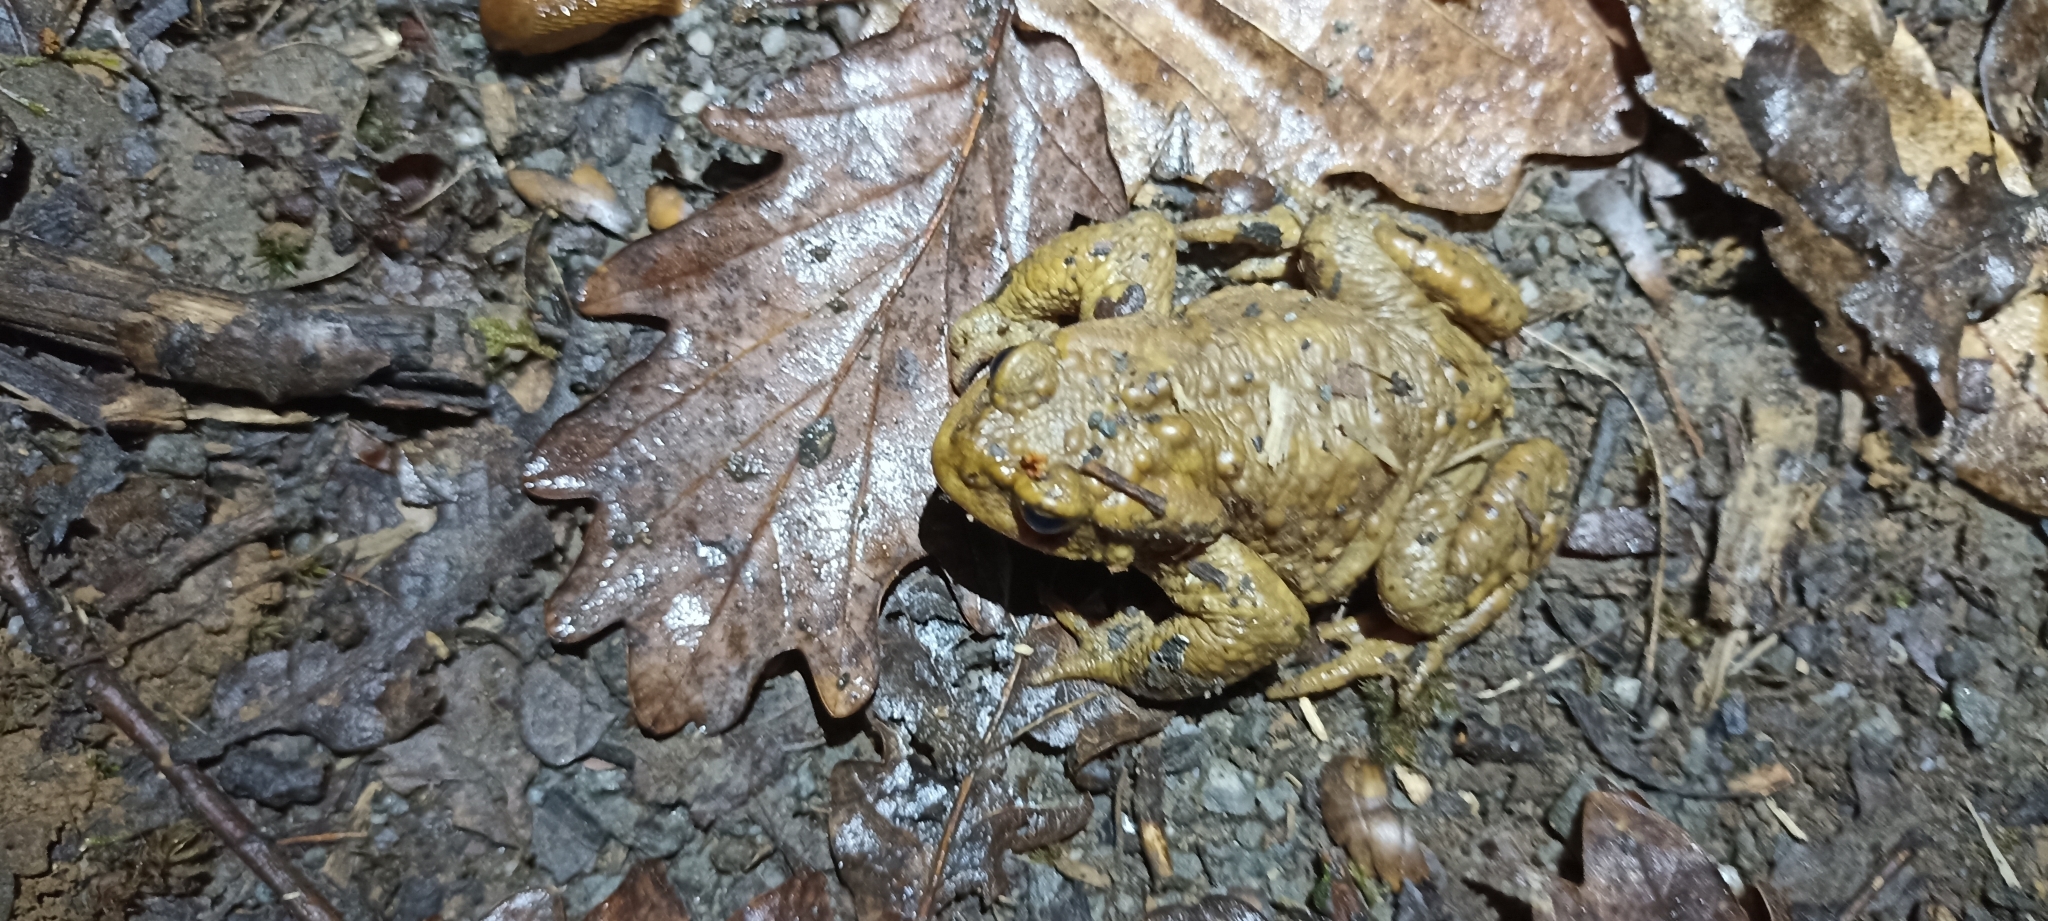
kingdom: Animalia
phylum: Chordata
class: Amphibia
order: Anura
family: Bufonidae
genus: Bufo
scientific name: Bufo spinosus
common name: Western common toad
